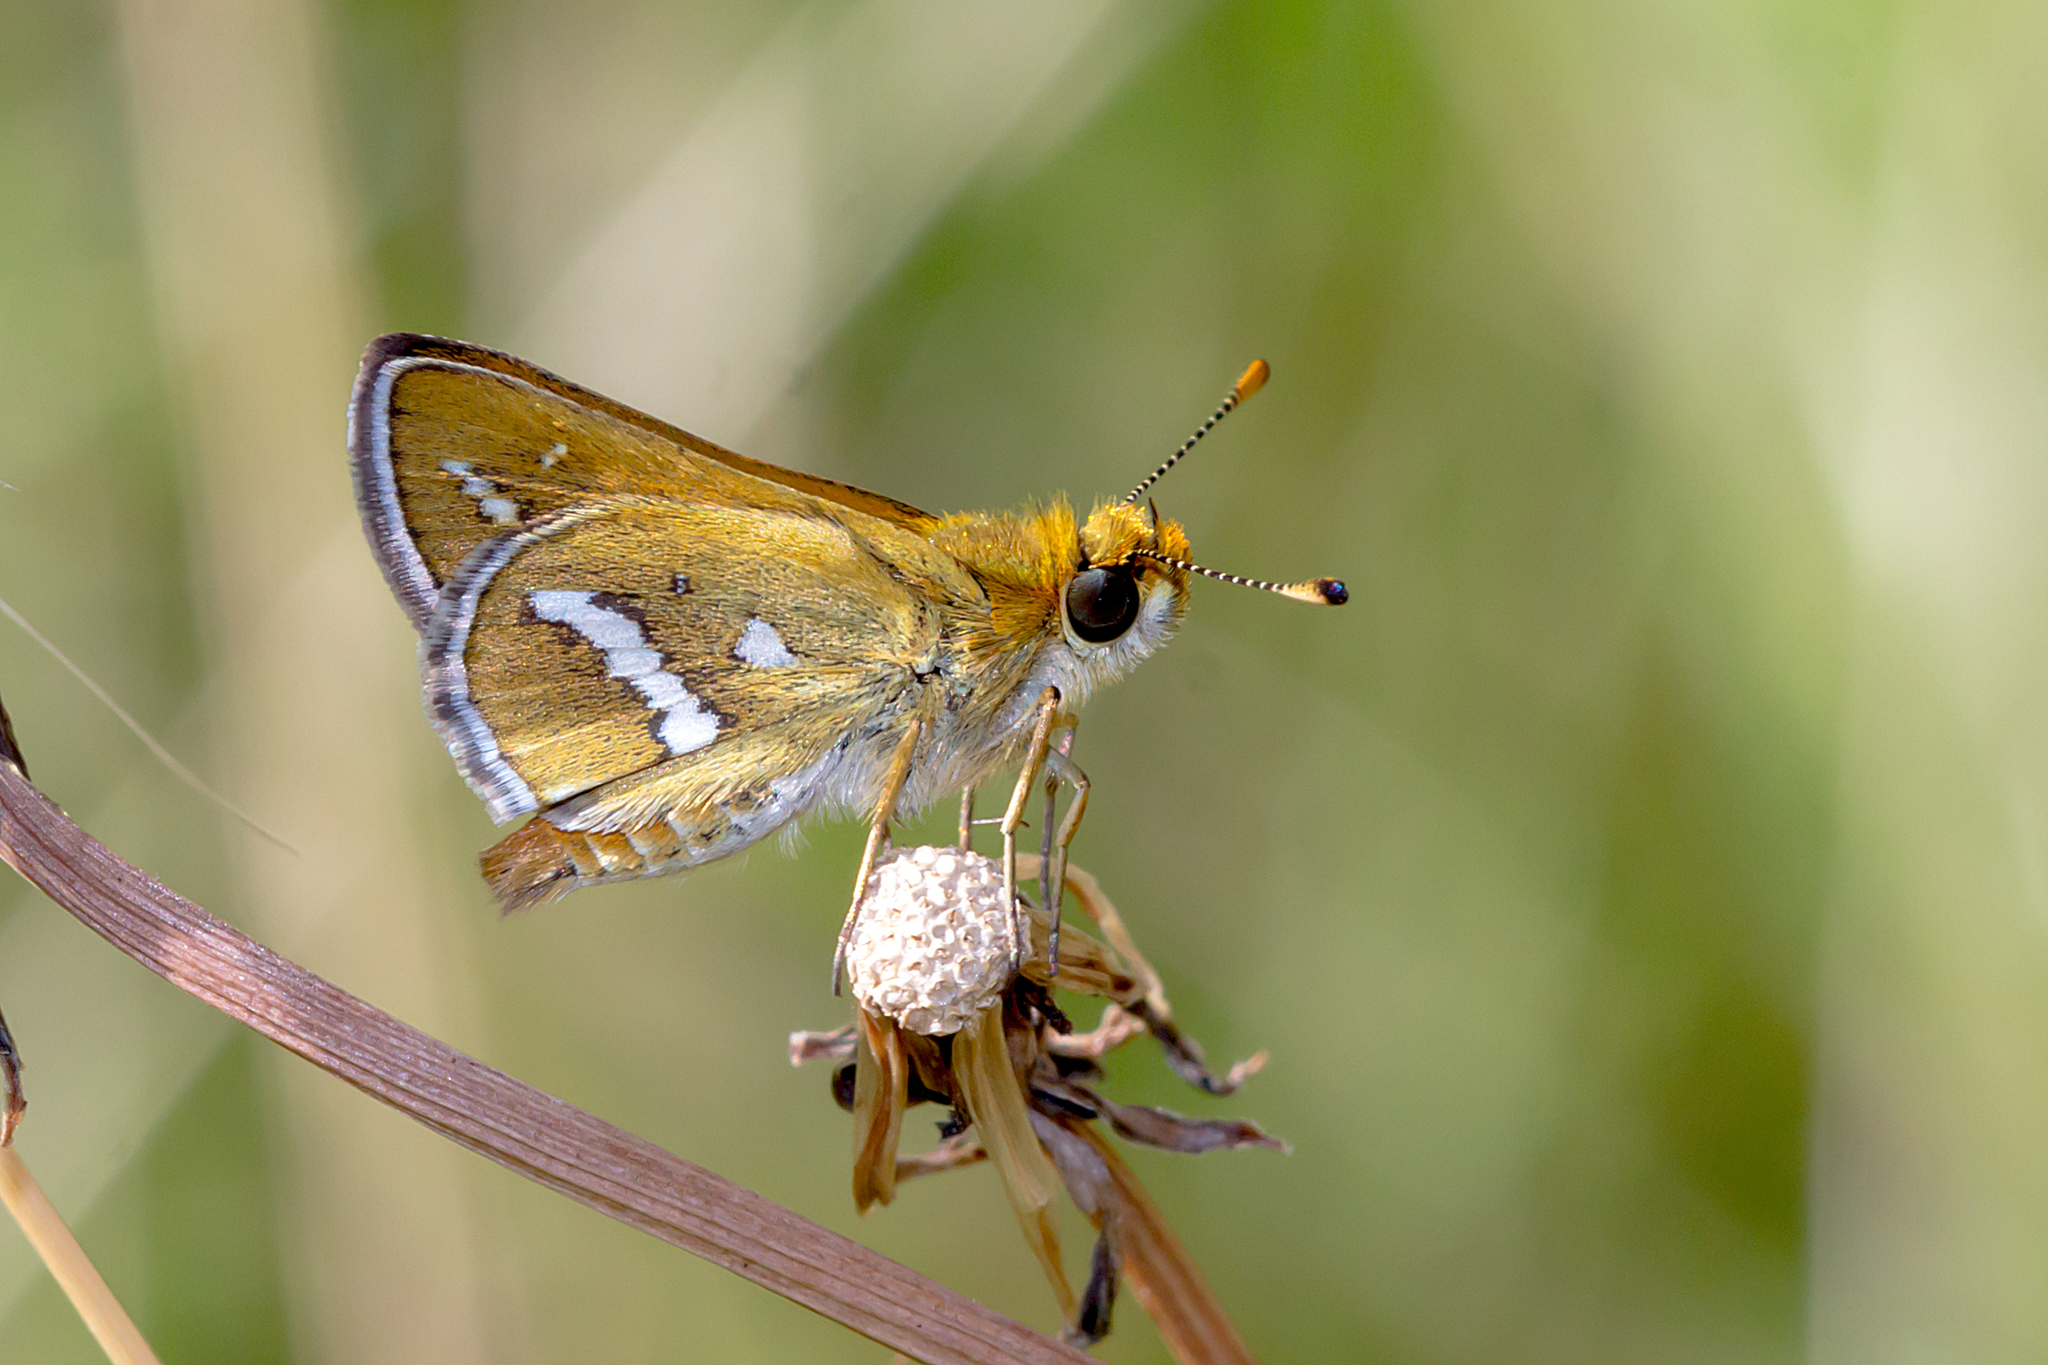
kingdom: Animalia
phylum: Arthropoda
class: Insecta
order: Lepidoptera
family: Hesperiidae
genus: Taractrocera
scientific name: Taractrocera papyria
